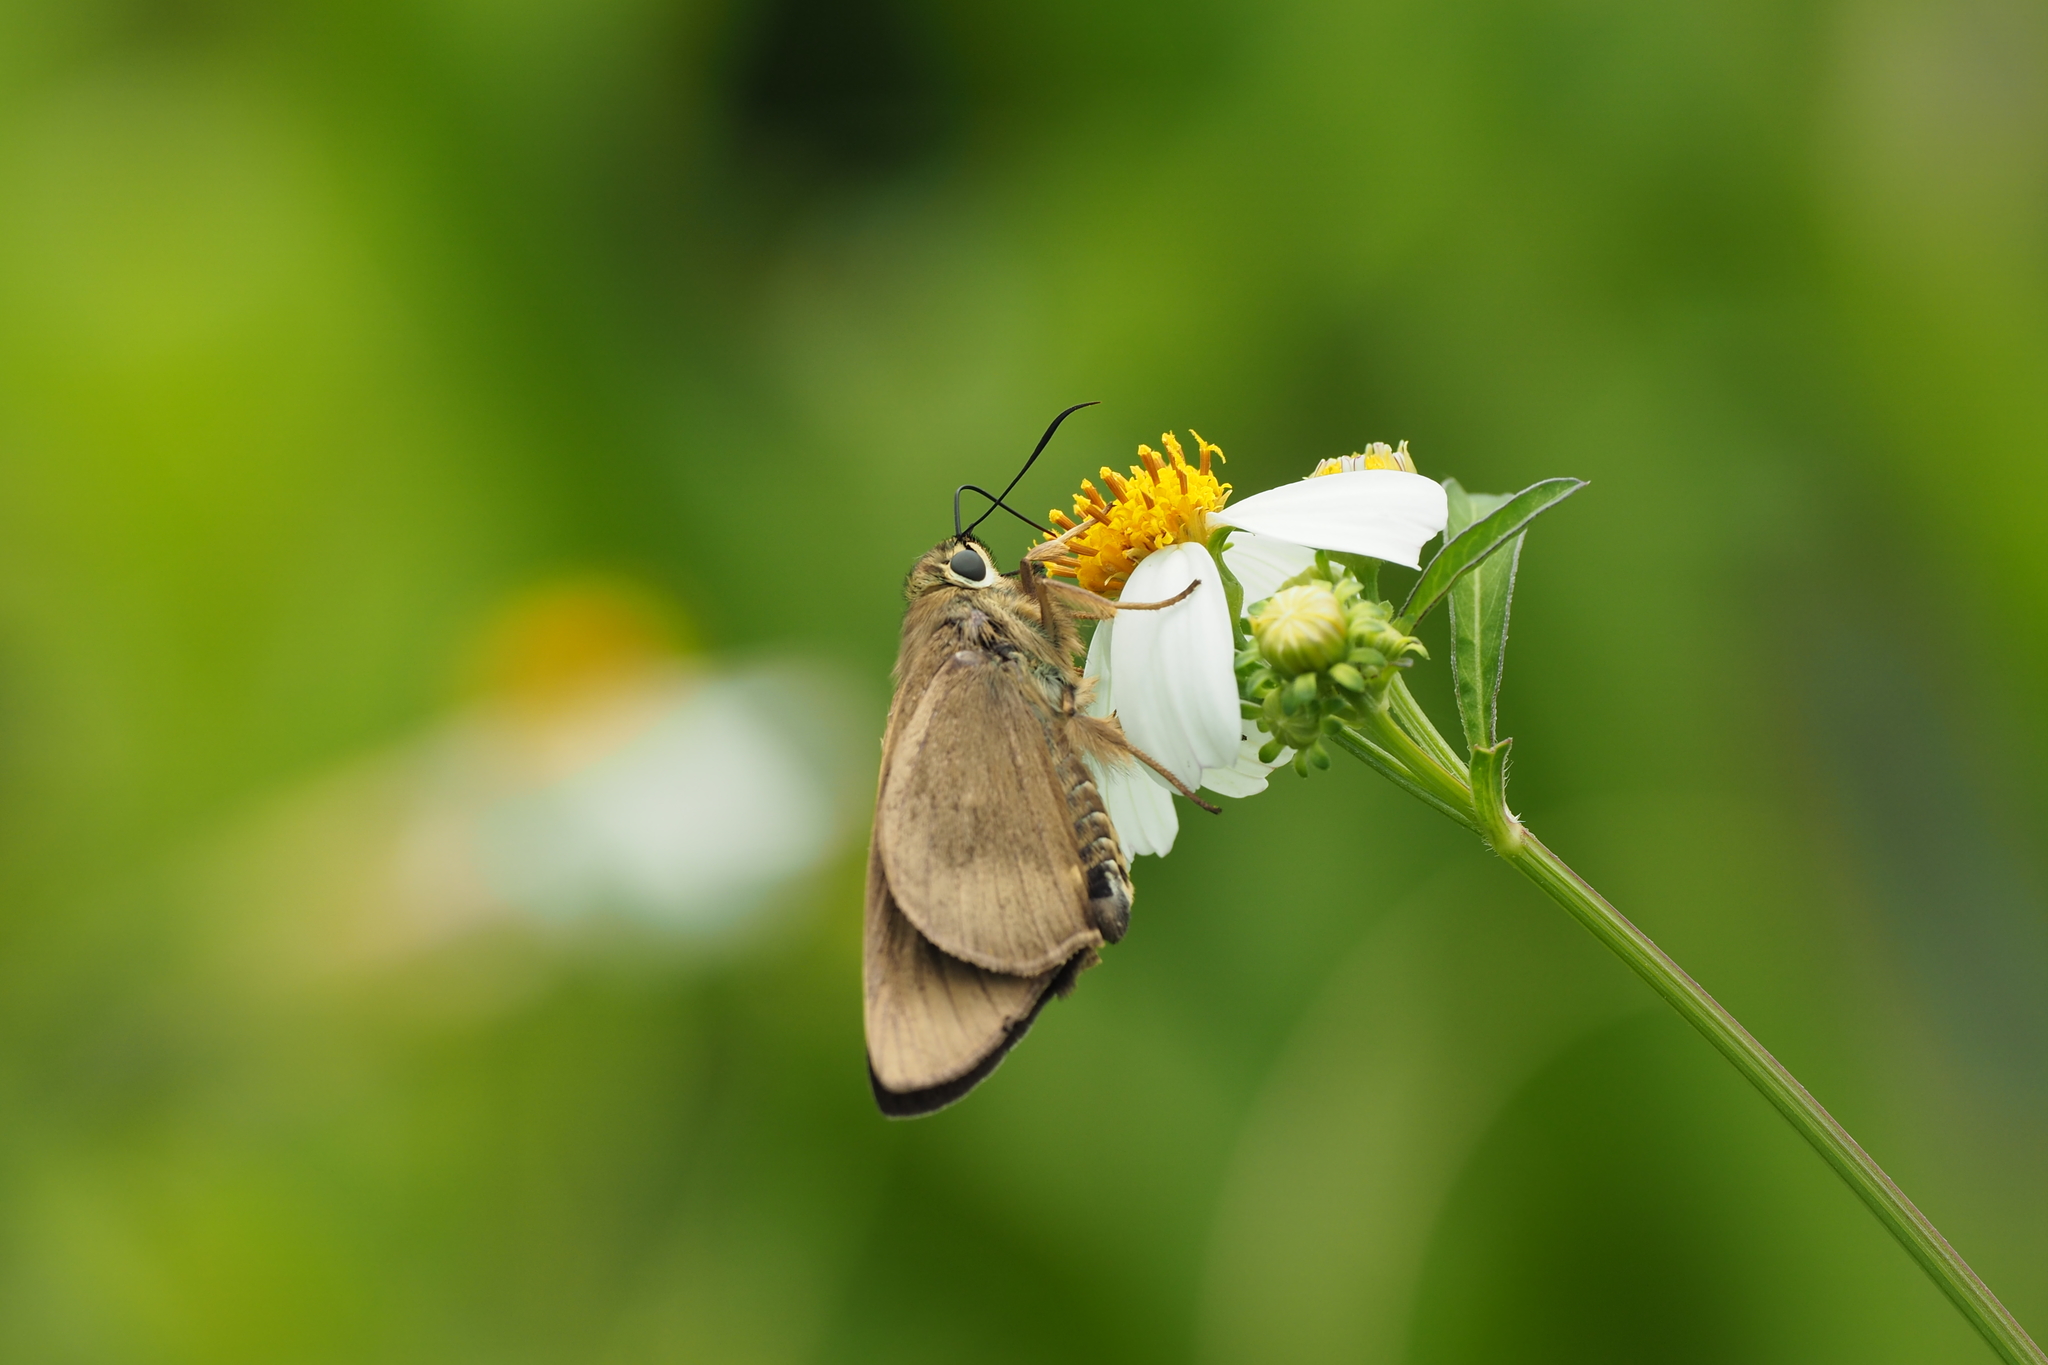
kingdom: Animalia
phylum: Arthropoda
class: Insecta
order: Lepidoptera
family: Hesperiidae
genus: Badamia
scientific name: Badamia exclamationis
